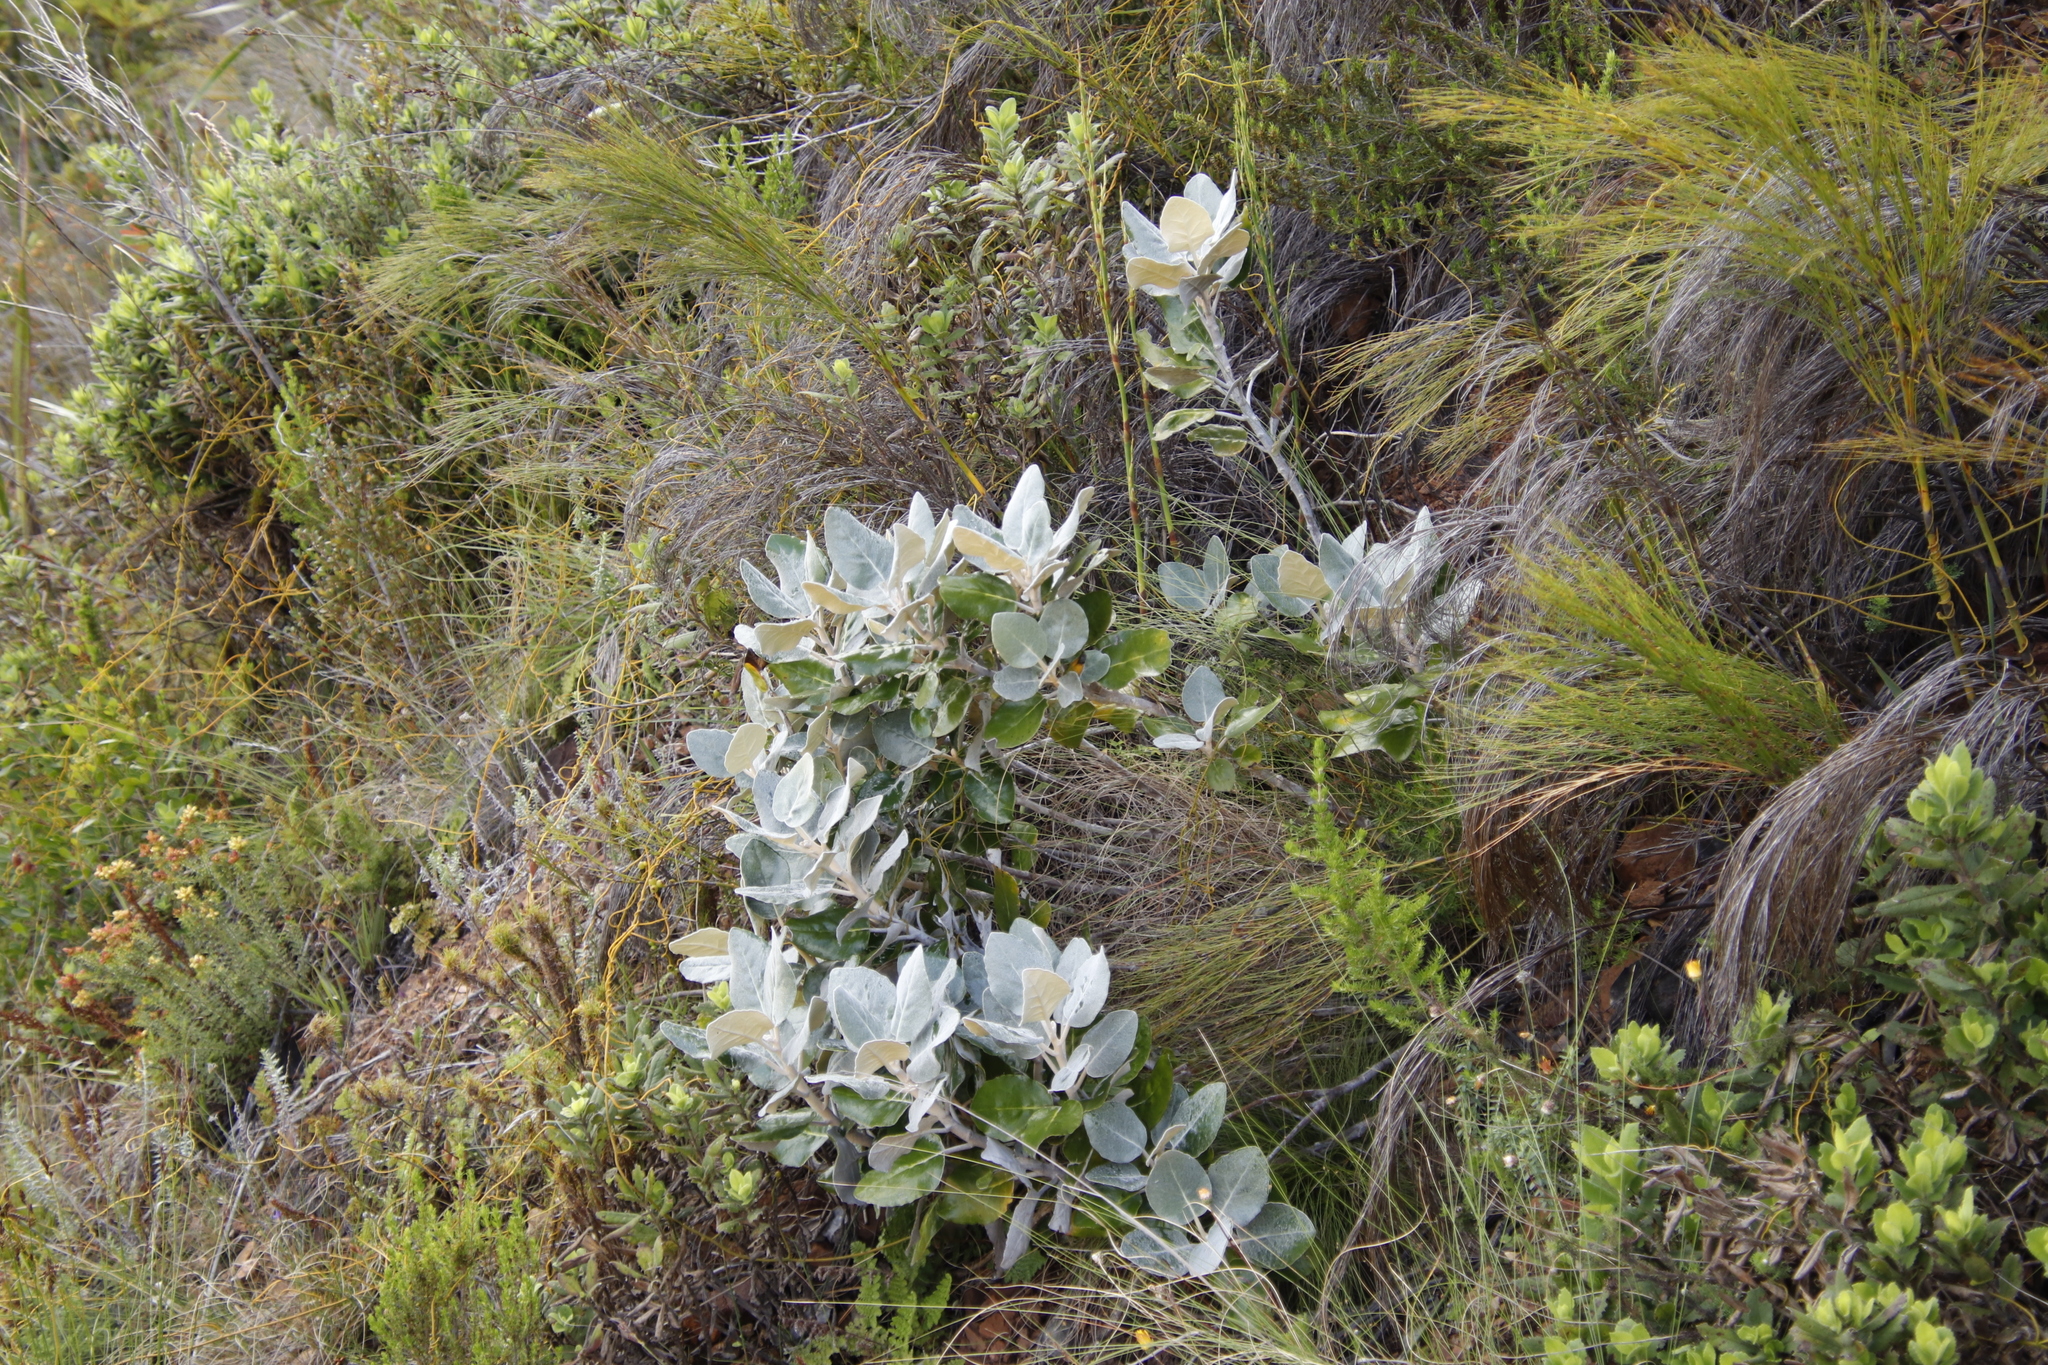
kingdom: Plantae
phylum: Tracheophyta
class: Magnoliopsida
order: Asterales
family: Asteraceae
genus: Capelio
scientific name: Capelio tabularis
